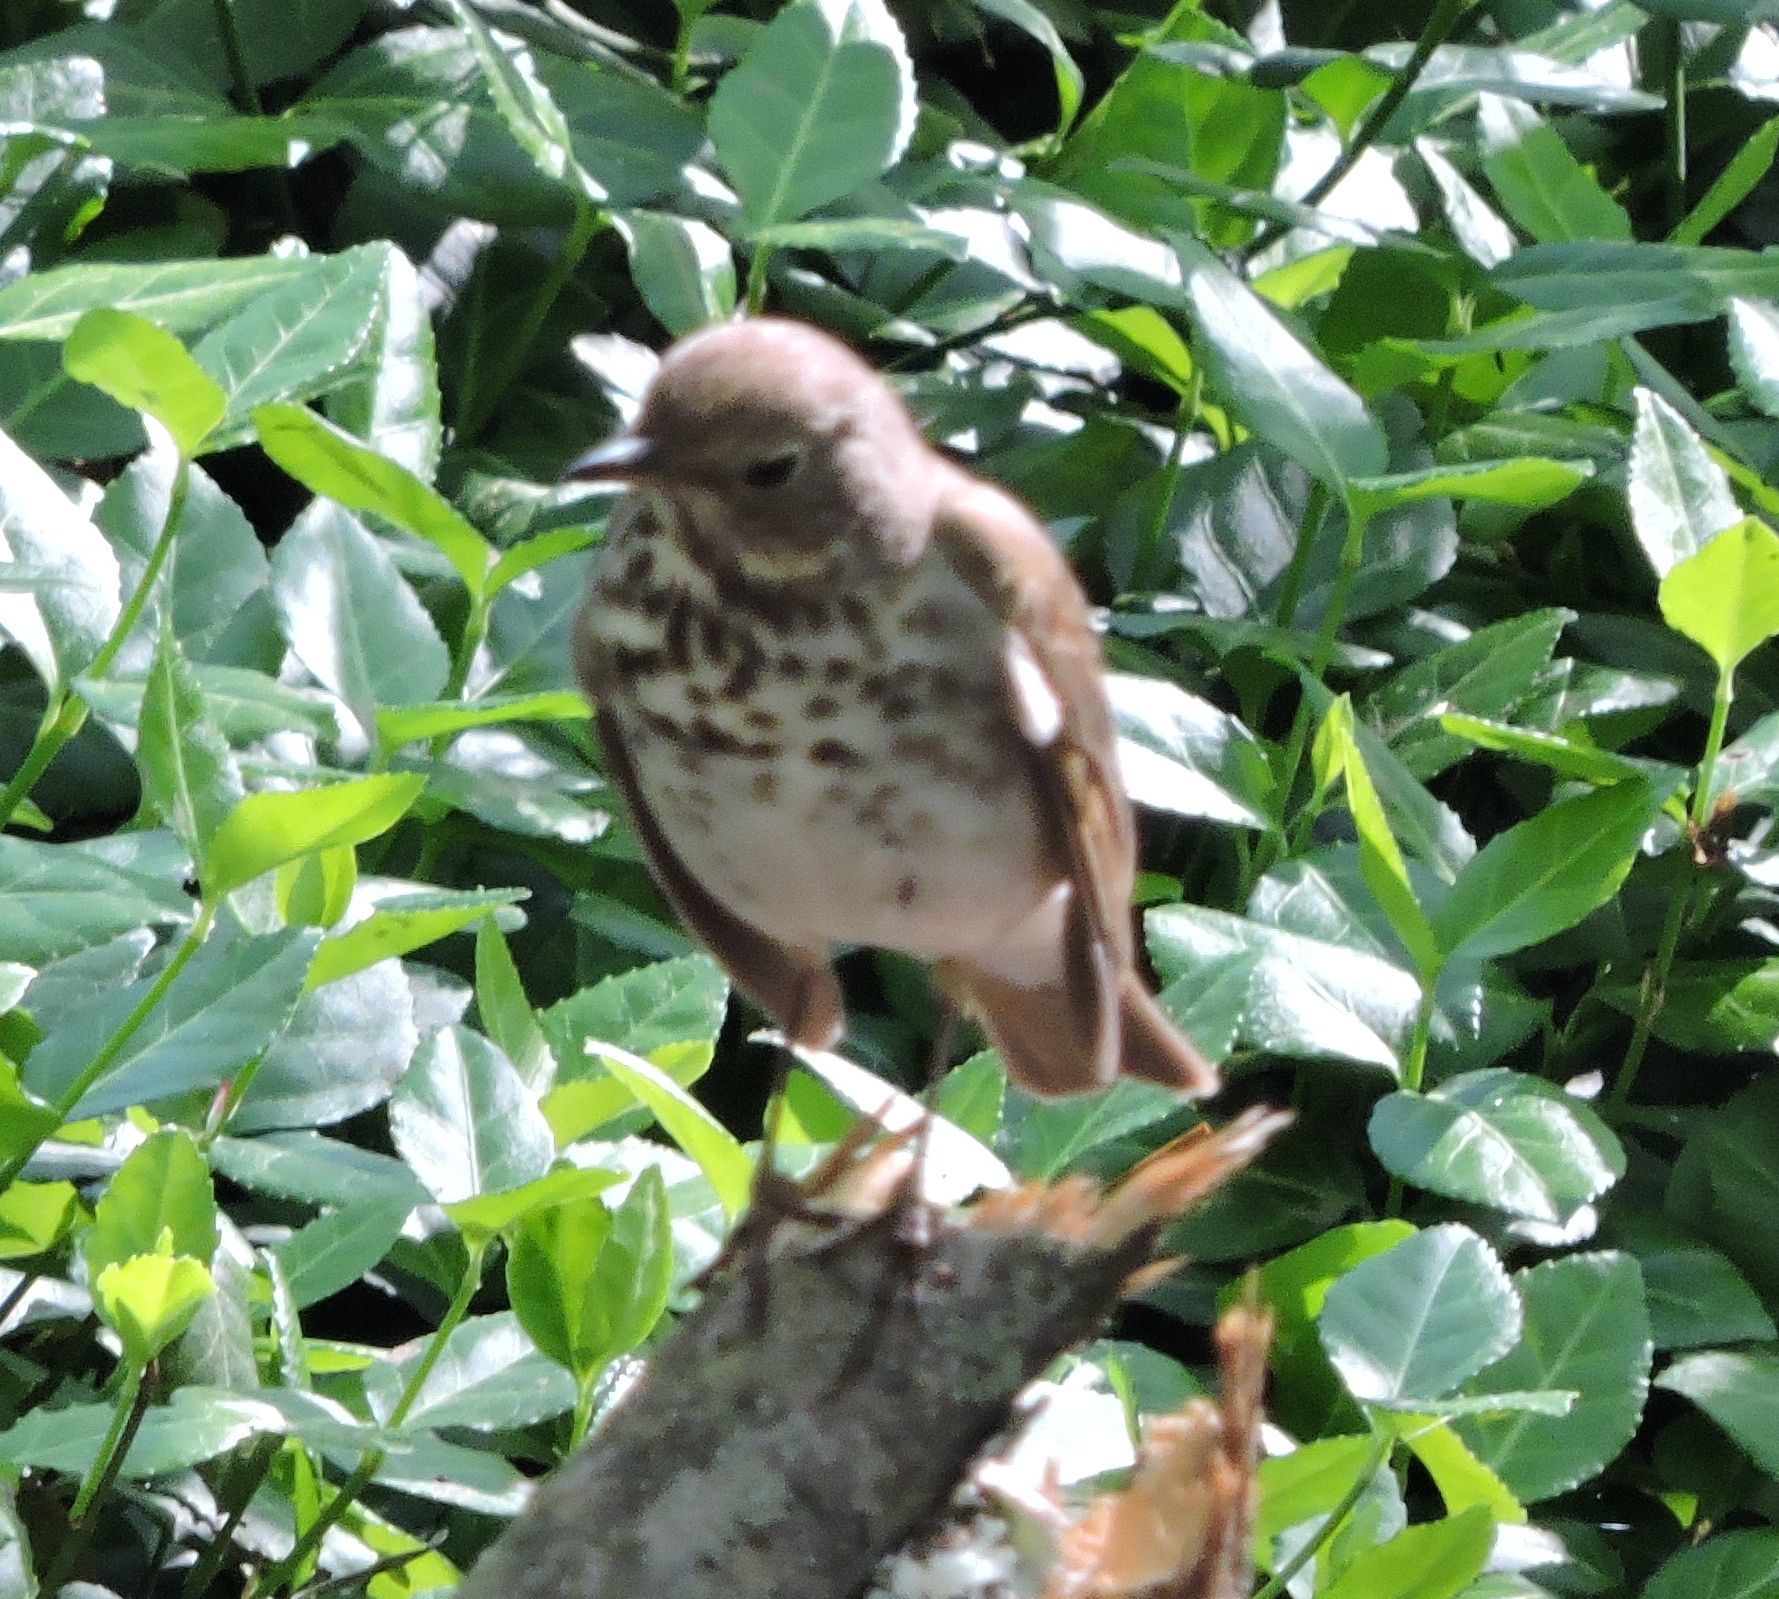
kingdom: Animalia
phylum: Chordata
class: Aves
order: Passeriformes
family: Turdidae
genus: Catharus
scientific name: Catharus guttatus
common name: Hermit thrush
